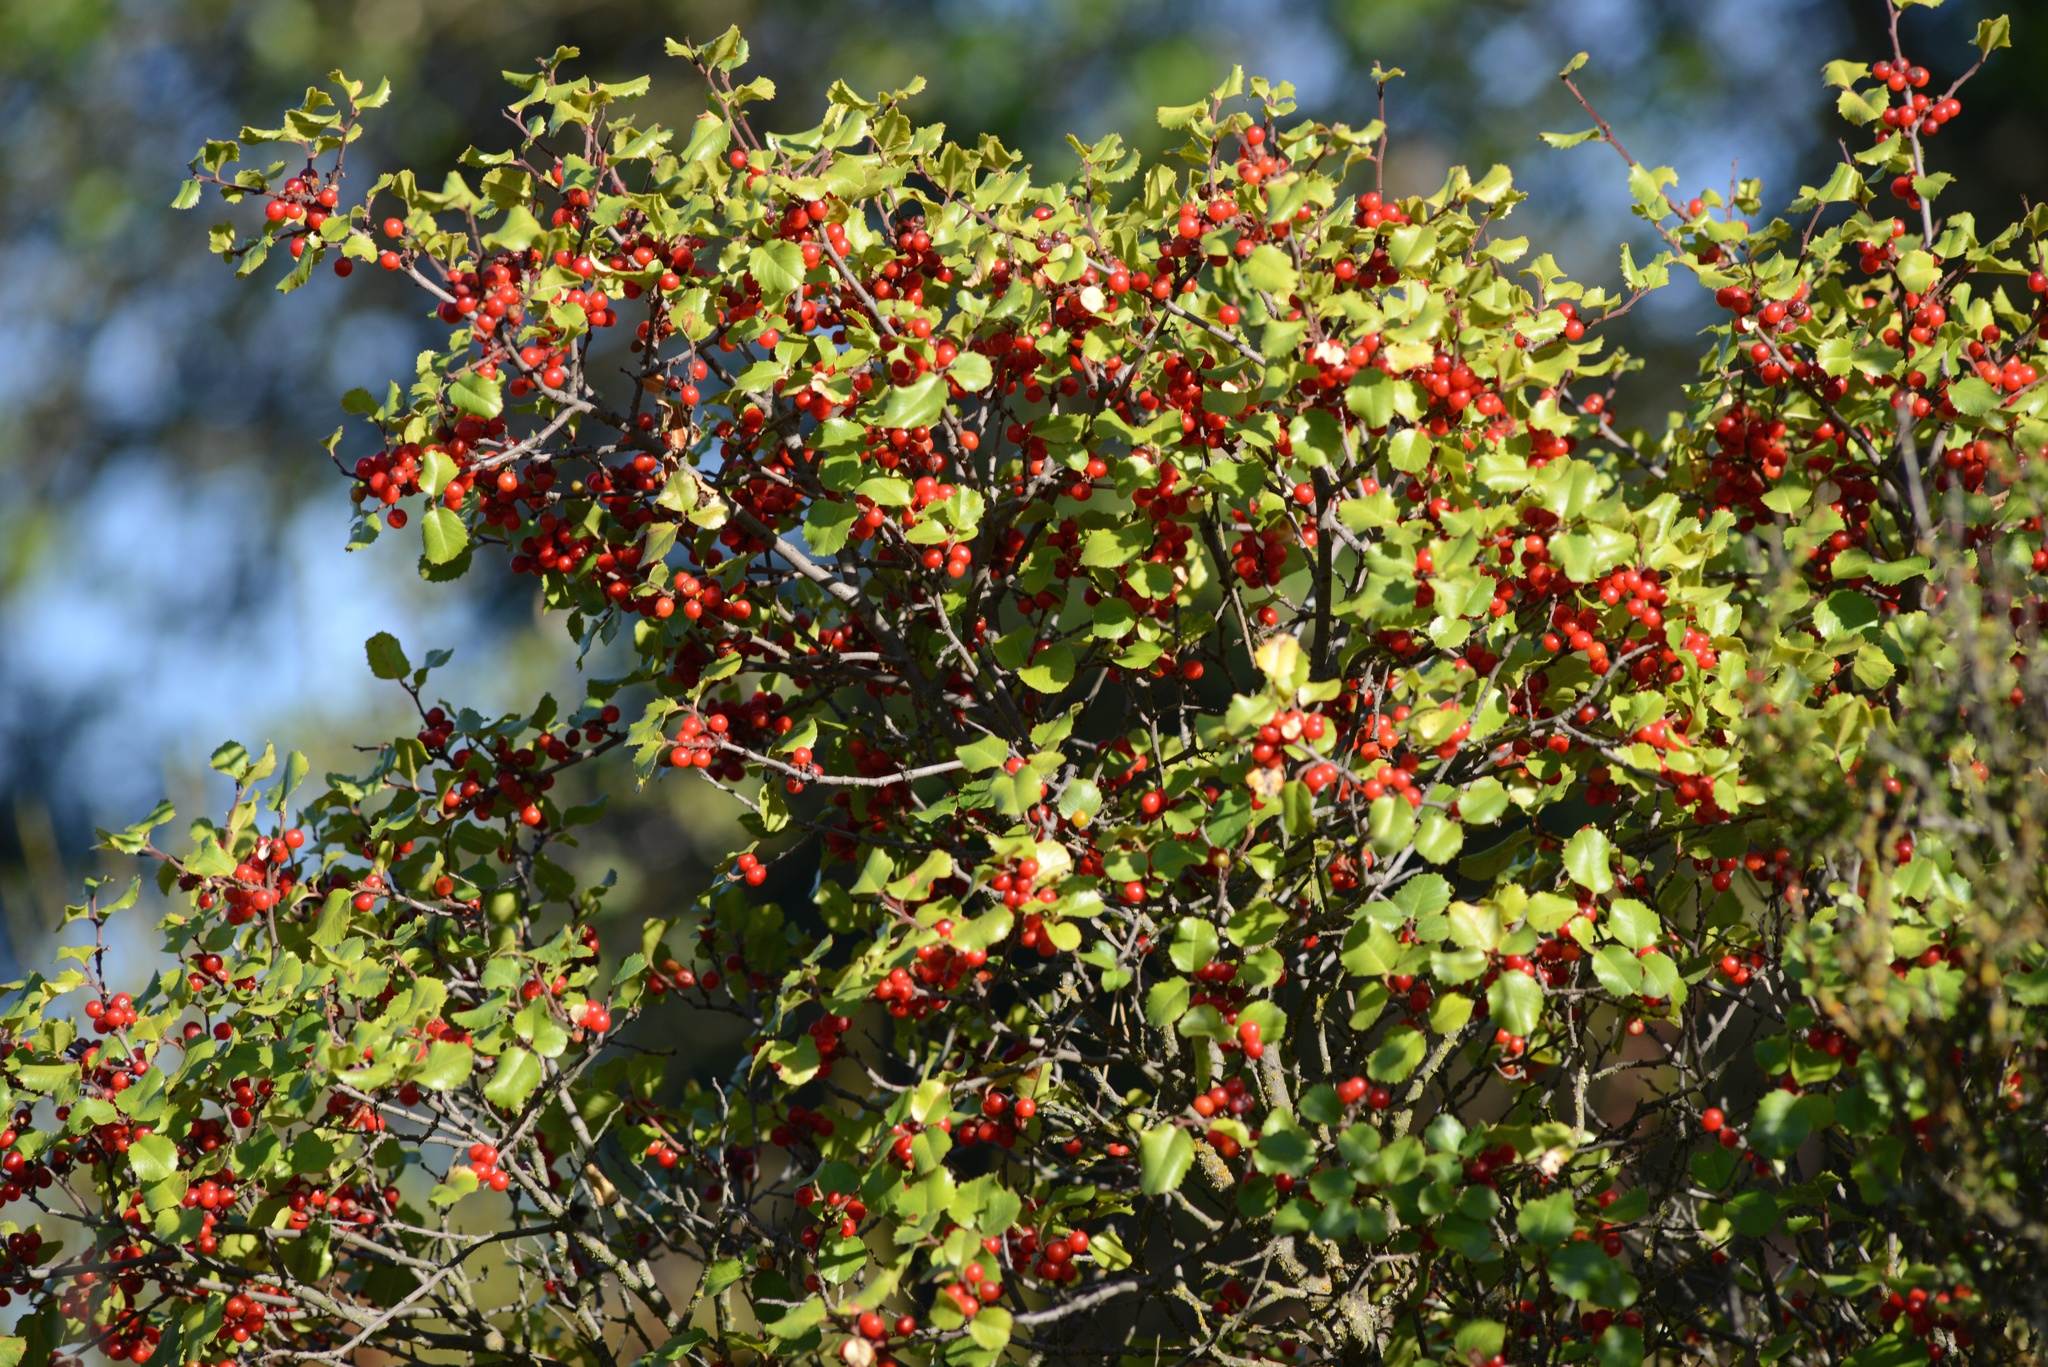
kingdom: Plantae
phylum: Tracheophyta
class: Magnoliopsida
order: Rosales
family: Rhamnaceae
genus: Endotropis
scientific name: Endotropis crocea
